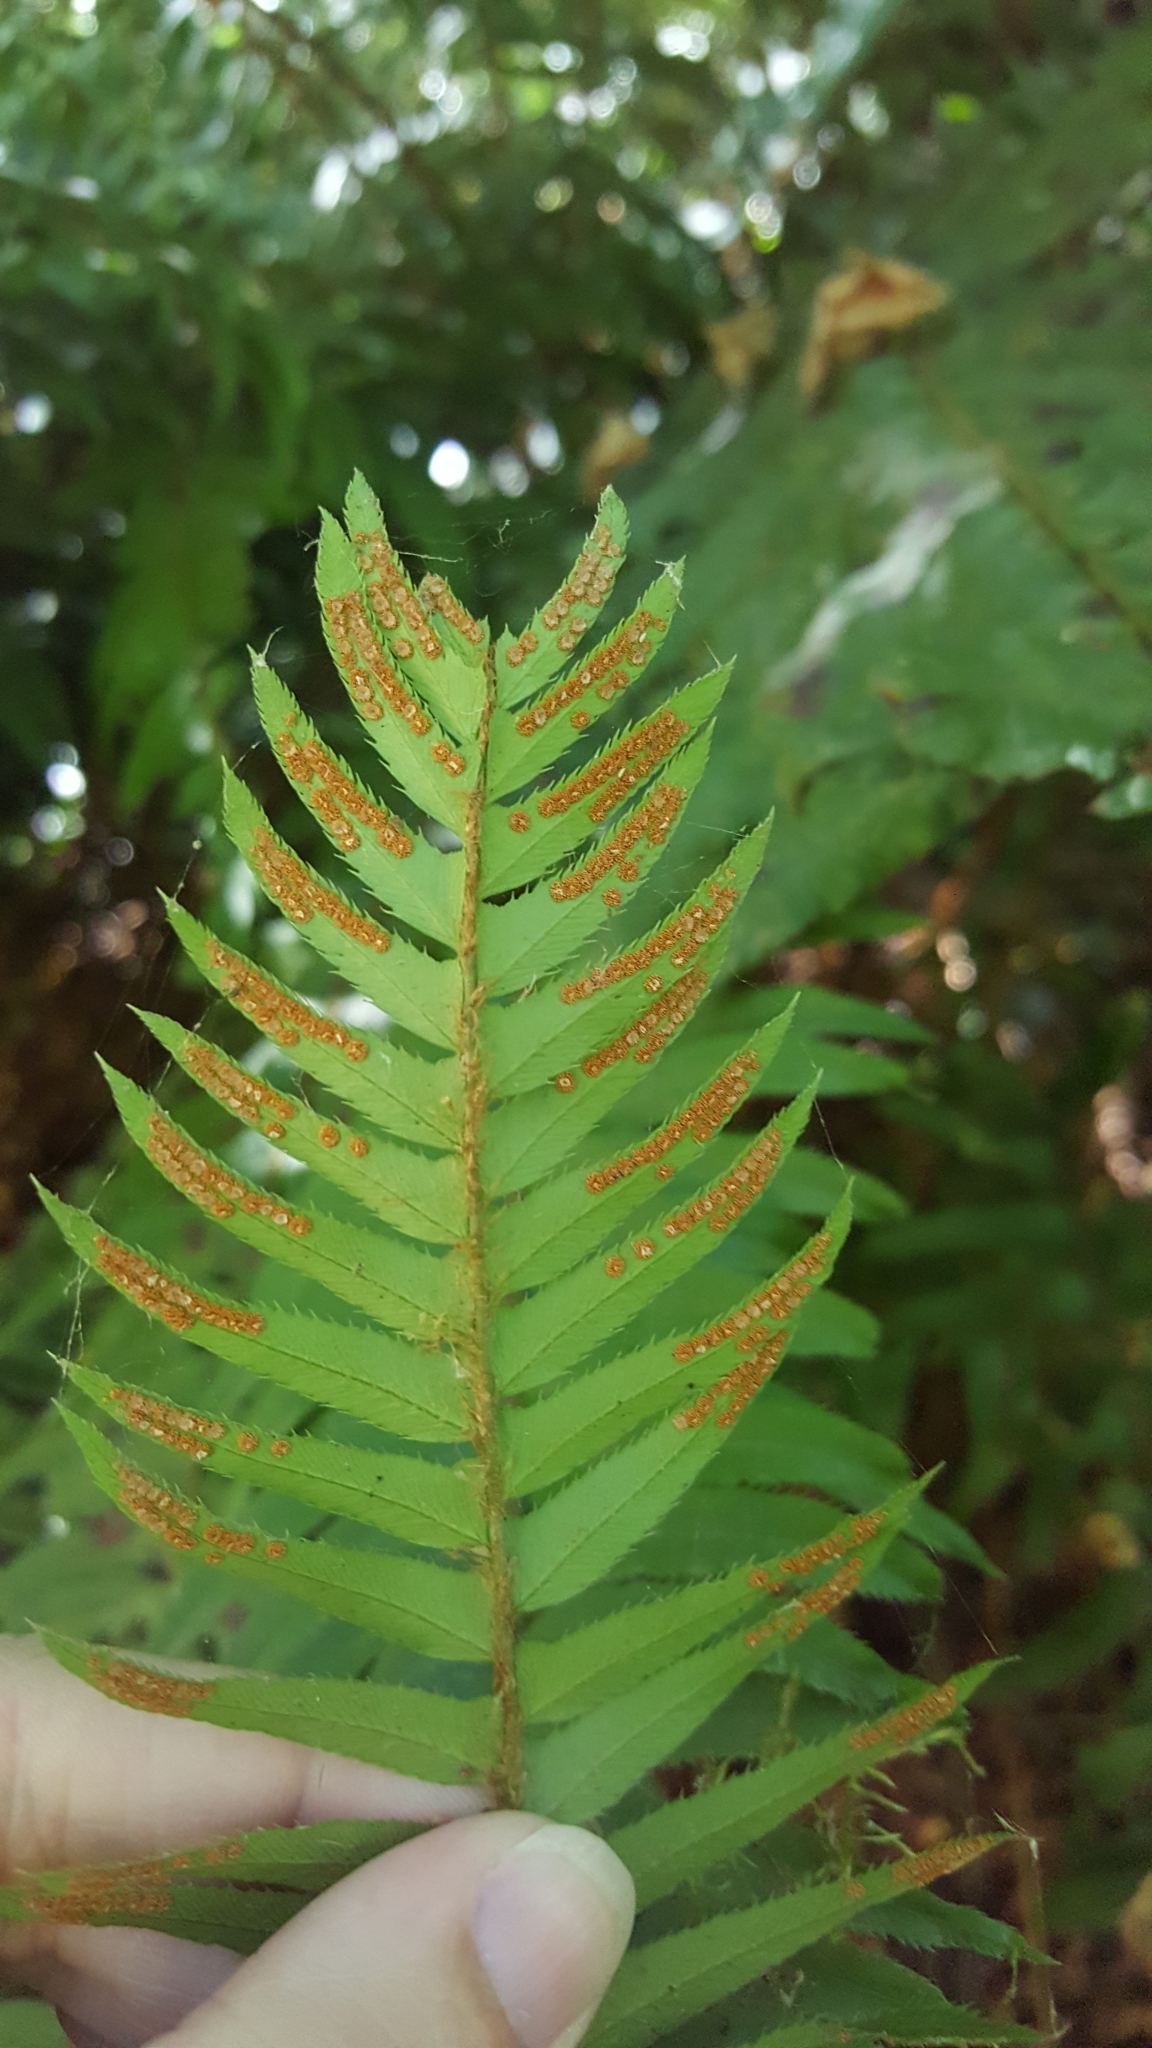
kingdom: Plantae
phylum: Tracheophyta
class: Polypodiopsida
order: Polypodiales
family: Dryopteridaceae
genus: Polystichum
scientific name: Polystichum munitum
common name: Western sword-fern
